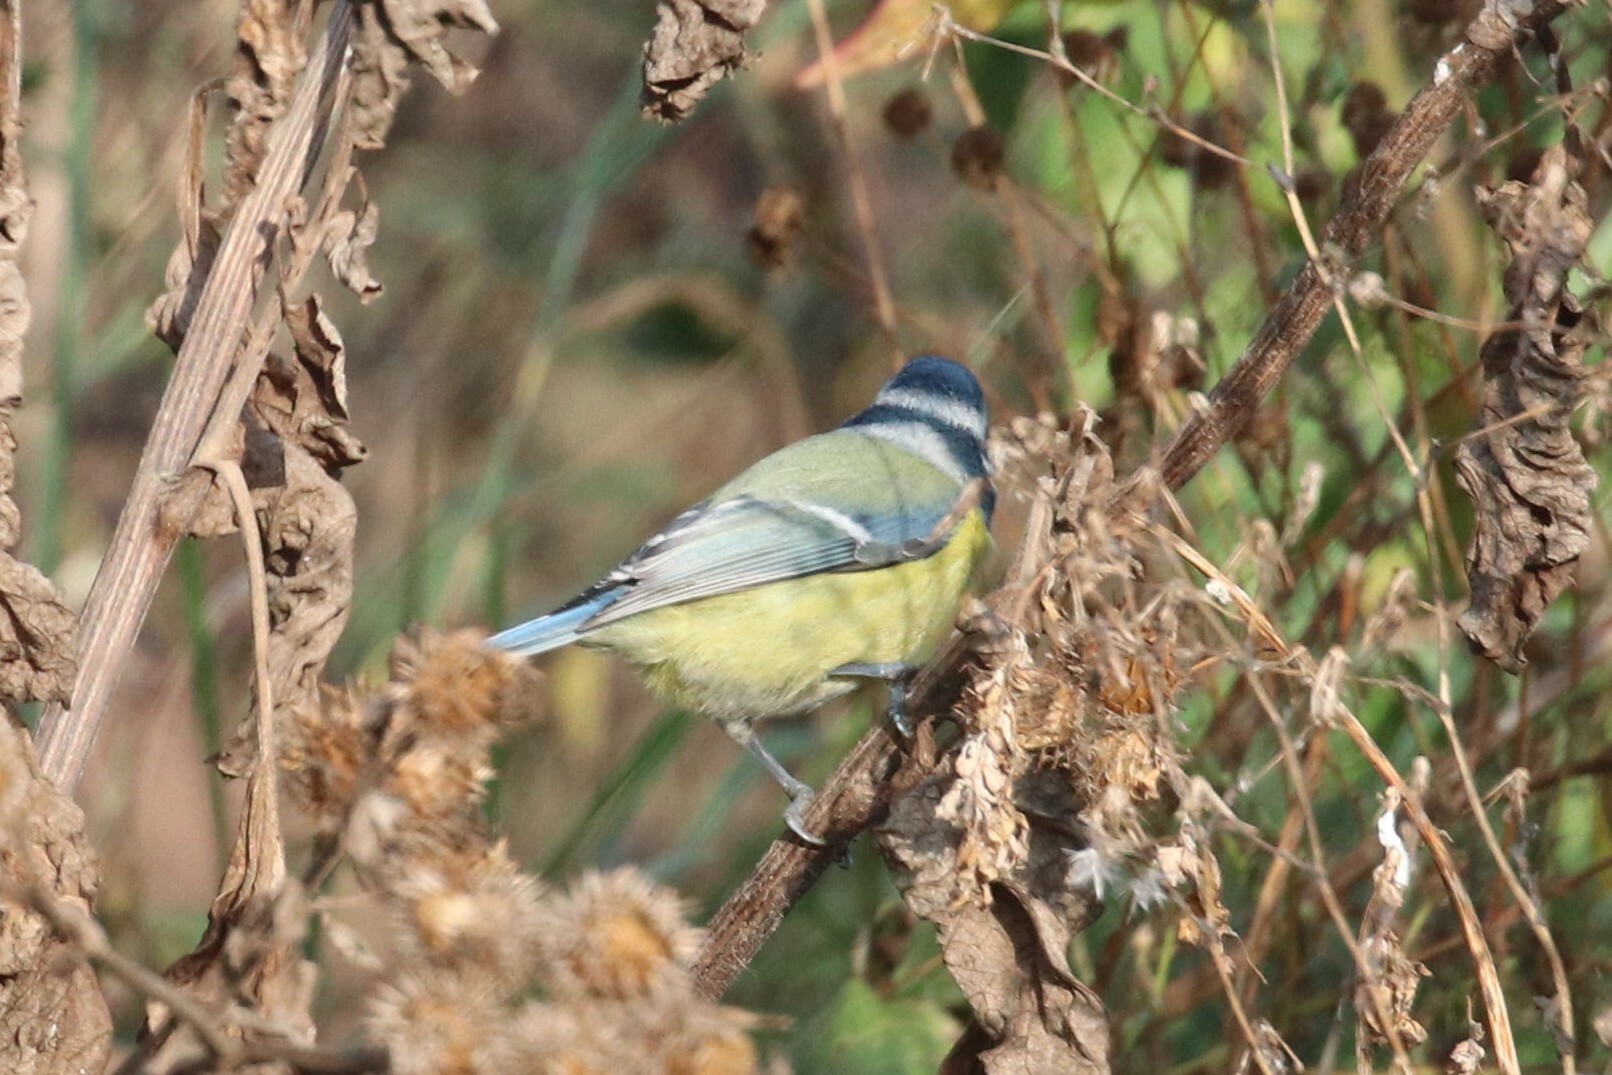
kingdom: Animalia
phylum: Chordata
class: Aves
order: Passeriformes
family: Paridae
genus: Cyanistes
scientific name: Cyanistes caeruleus
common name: Eurasian blue tit
